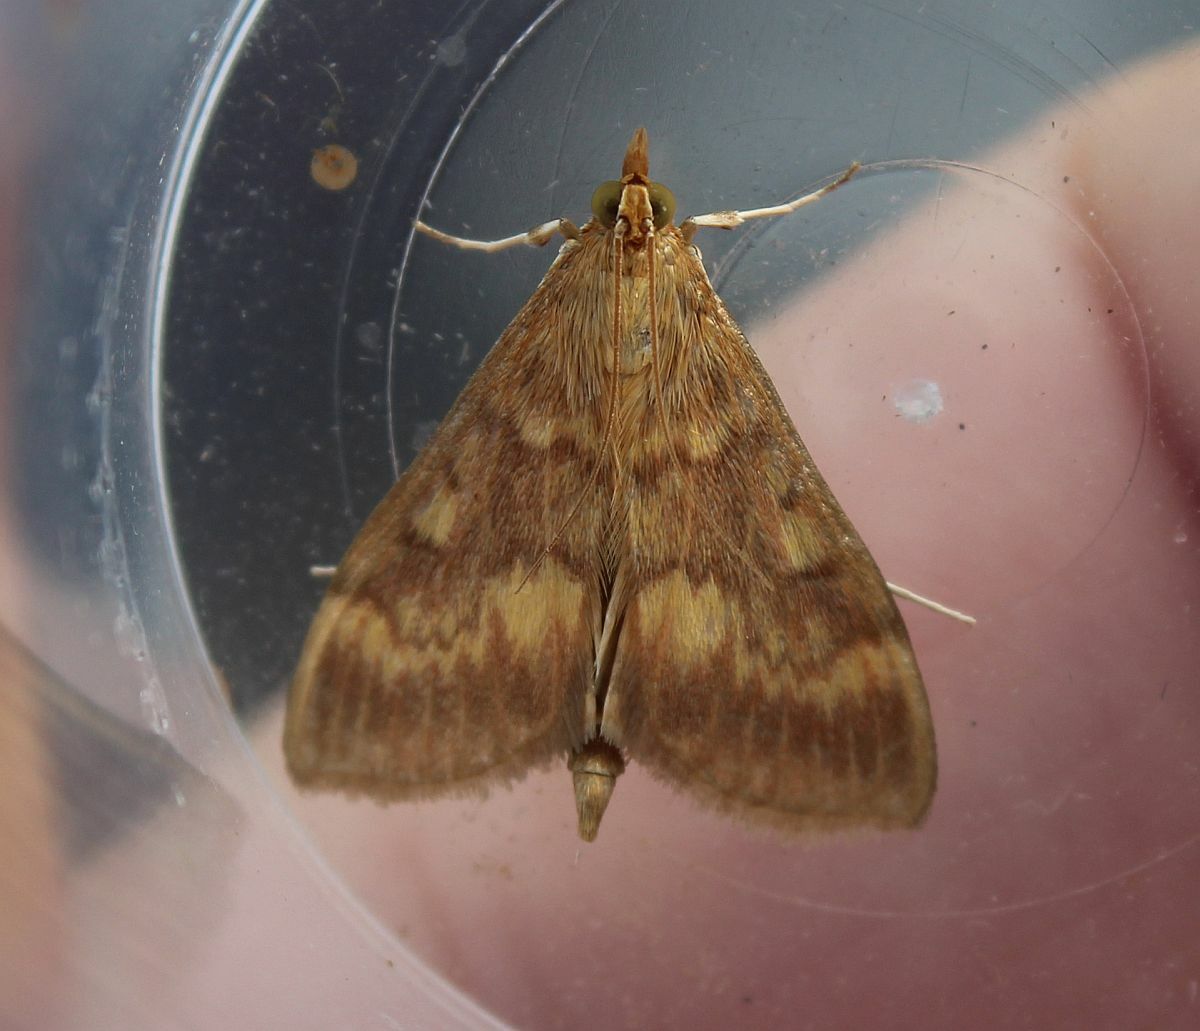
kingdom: Animalia
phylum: Arthropoda
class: Insecta
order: Lepidoptera
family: Crambidae
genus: Ostrinia
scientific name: Ostrinia nubilalis
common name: European corn borer
